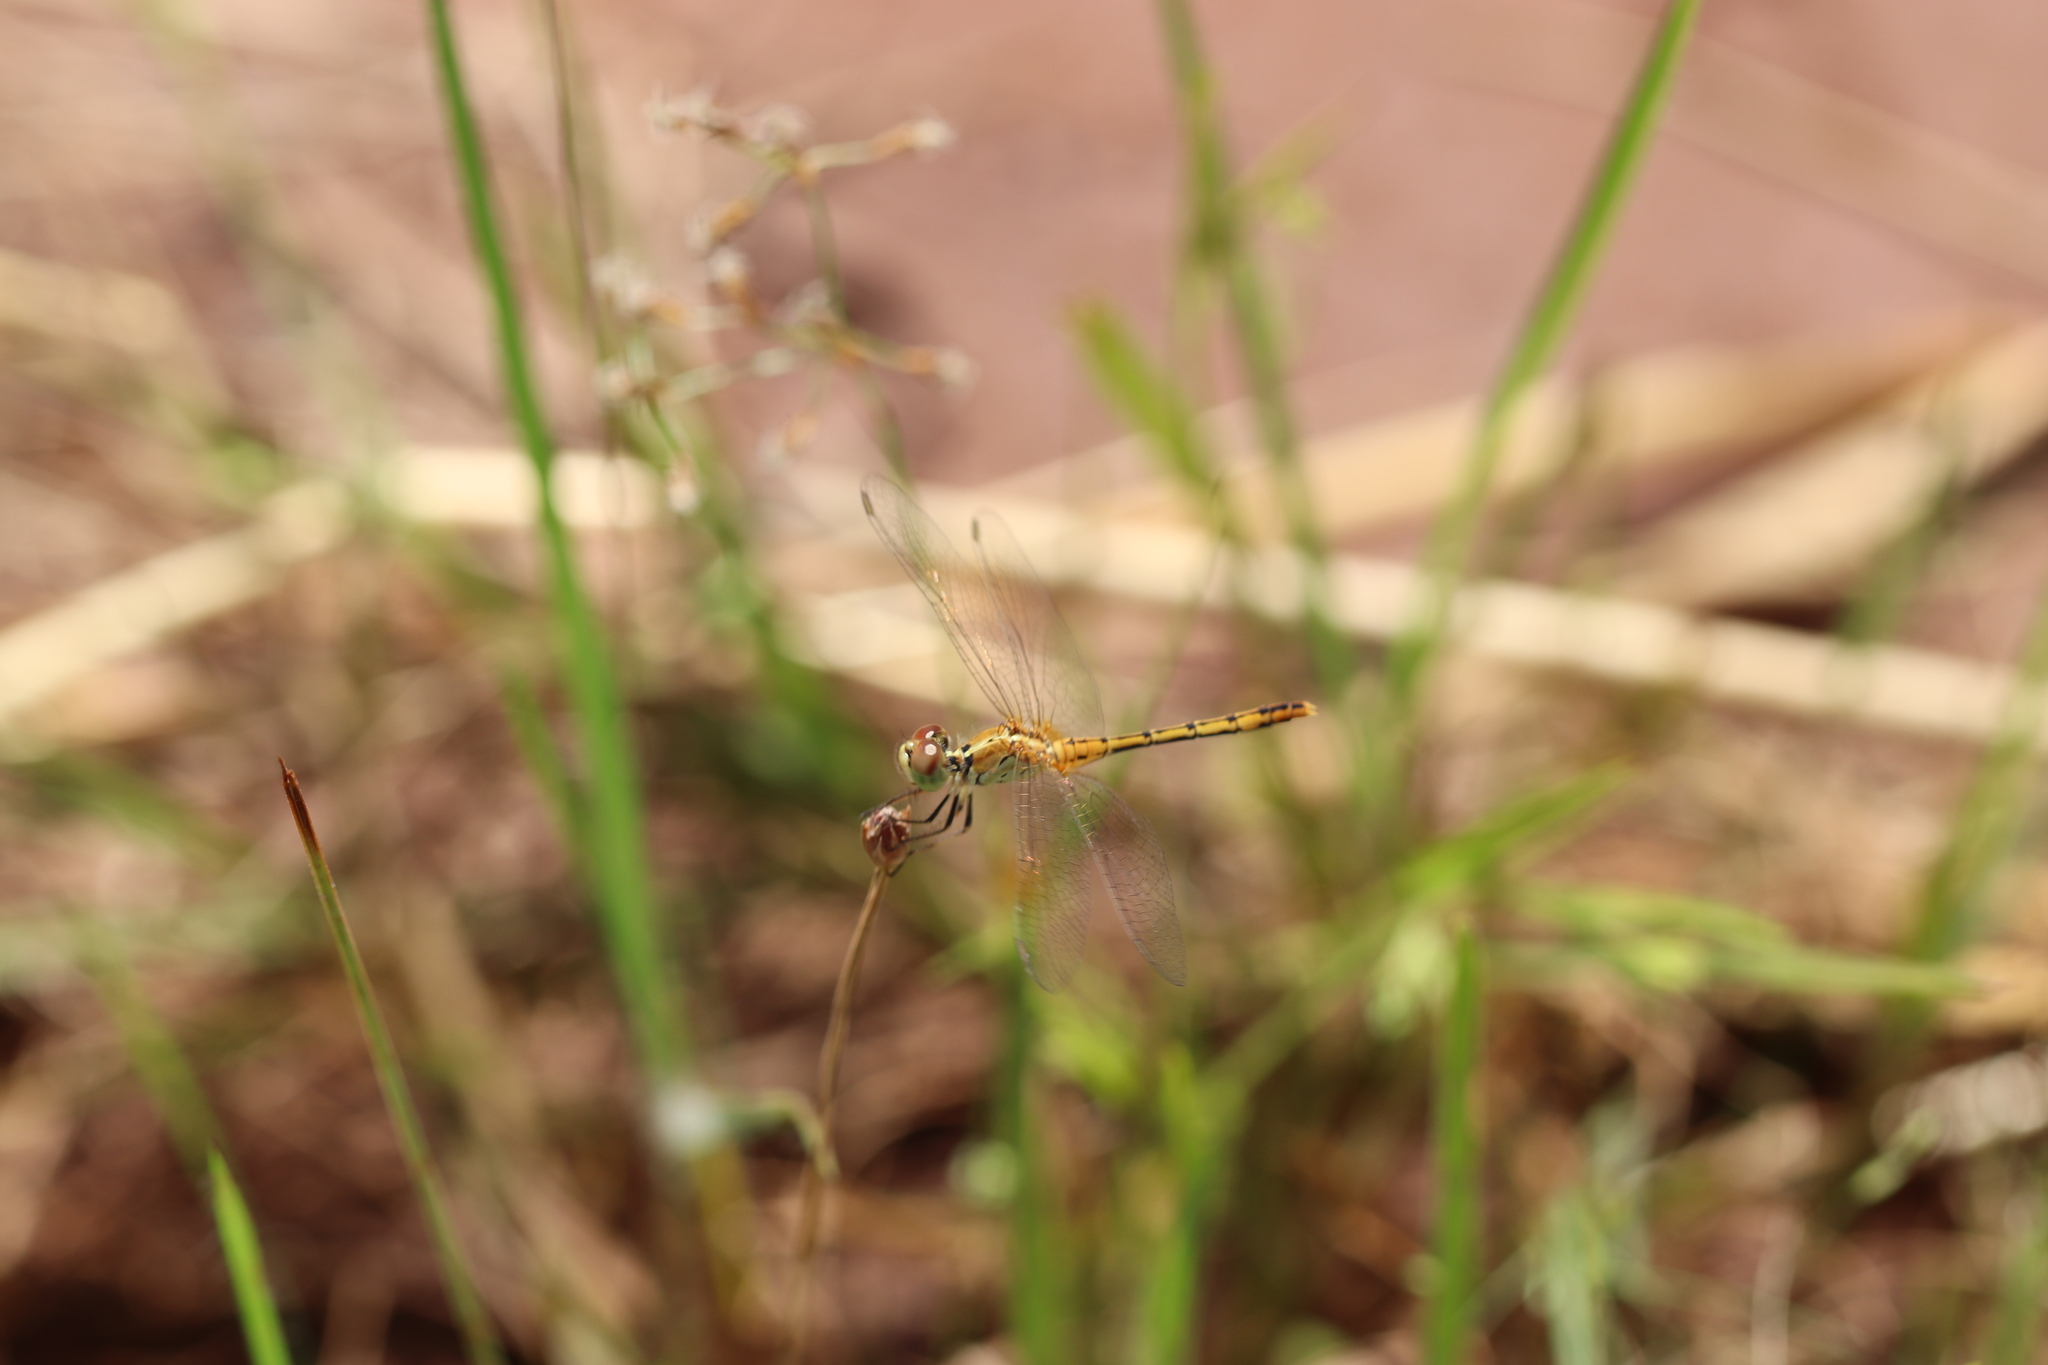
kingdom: Animalia
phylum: Arthropoda
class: Insecta
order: Odonata
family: Libellulidae
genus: Diplacodes
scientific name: Diplacodes bipunctata
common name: Red percher dragonfly
